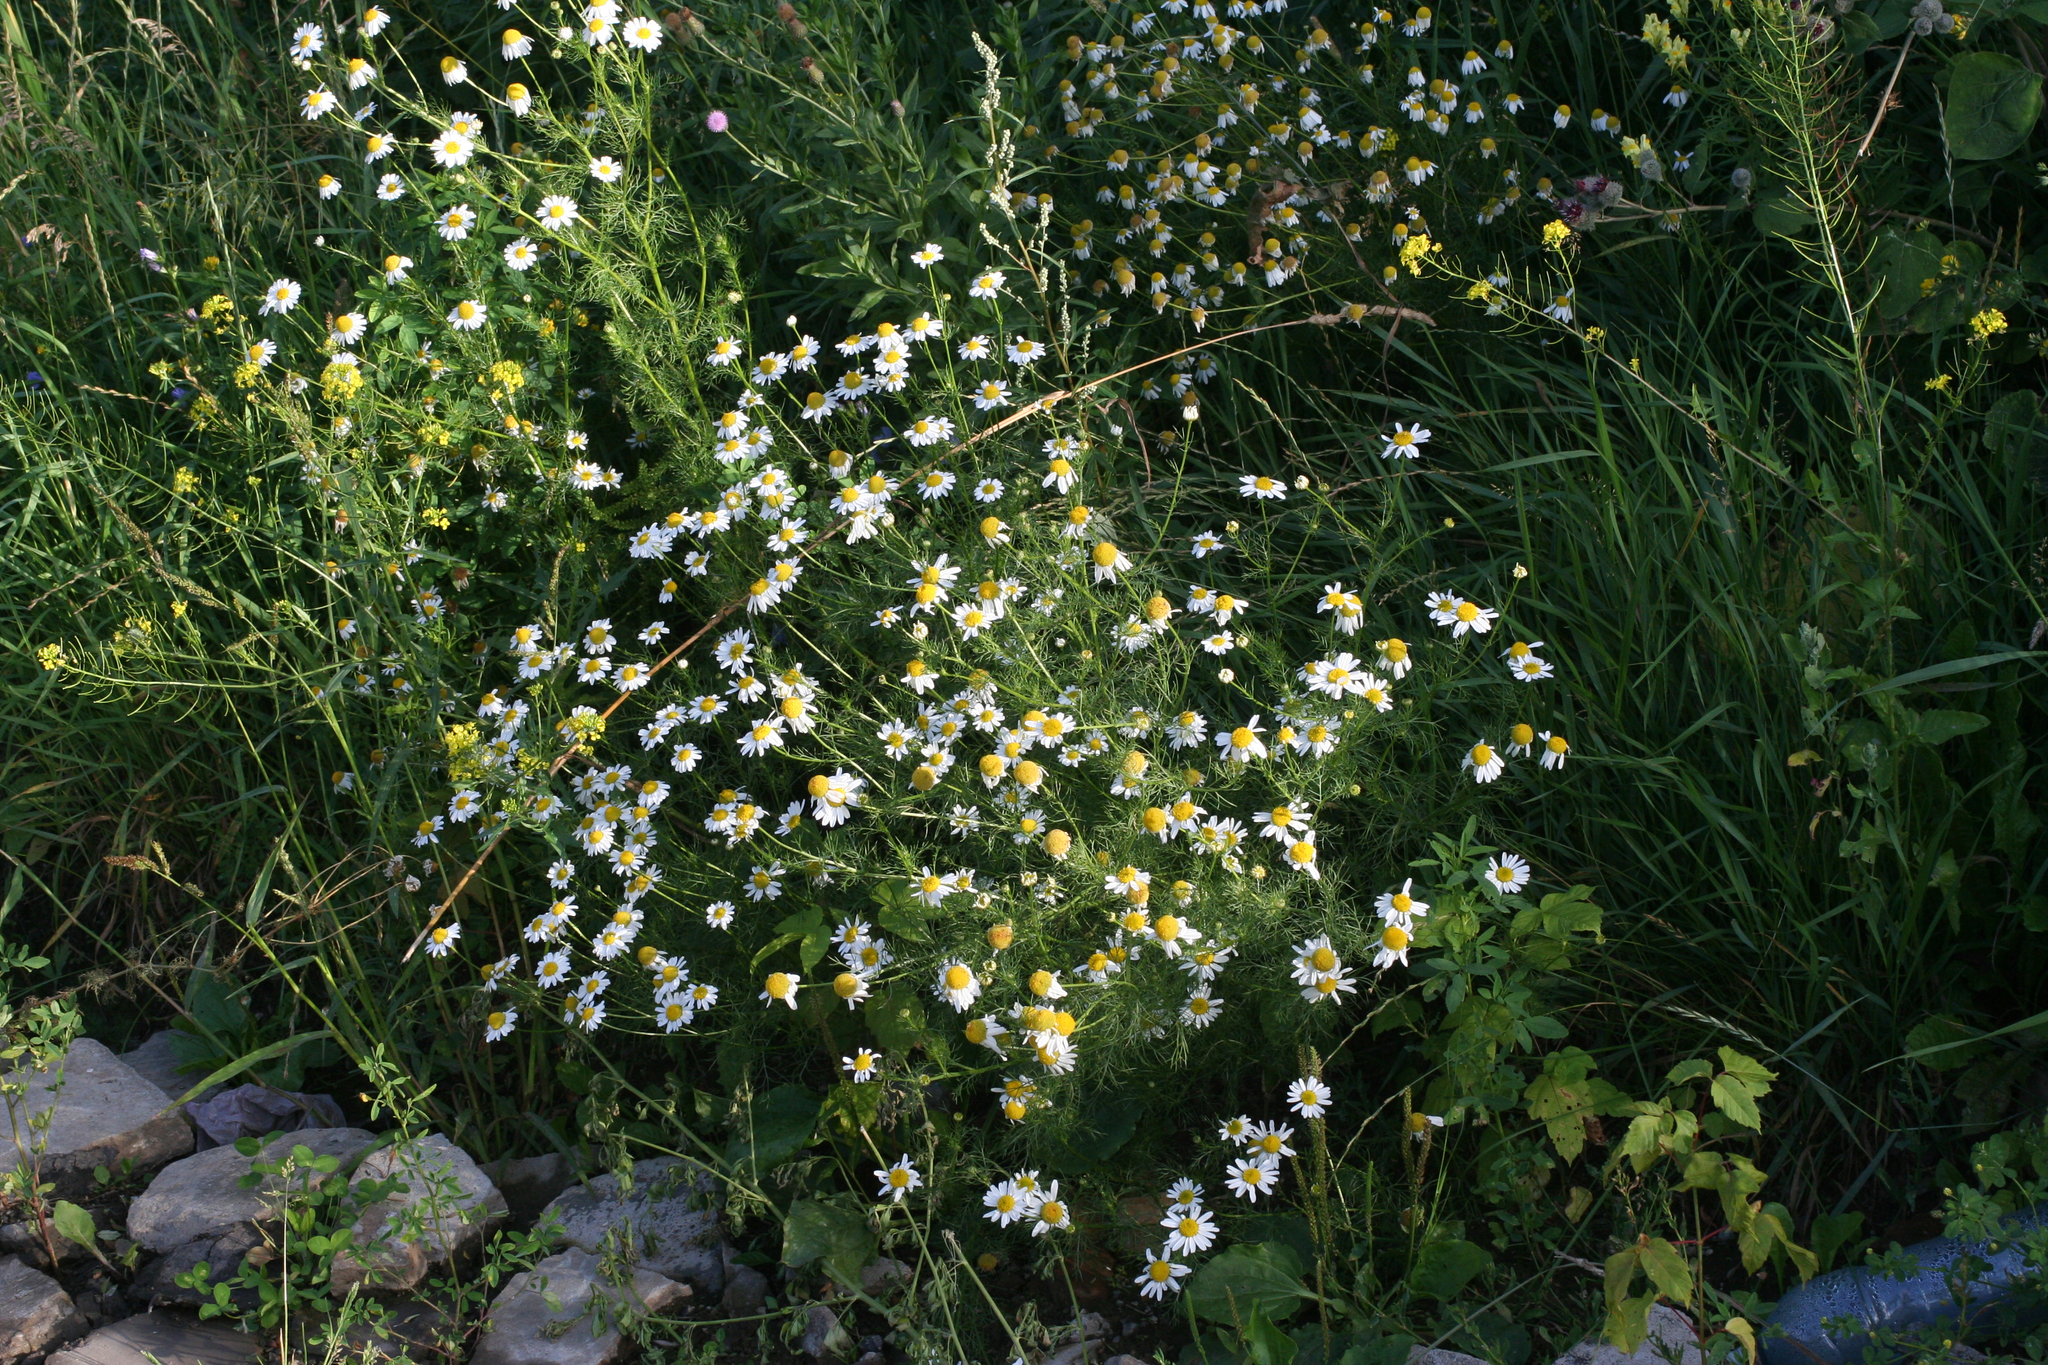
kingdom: Plantae
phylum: Tracheophyta
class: Magnoliopsida
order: Asterales
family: Asteraceae
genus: Tripleurospermum
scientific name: Tripleurospermum inodorum
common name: Scentless mayweed
